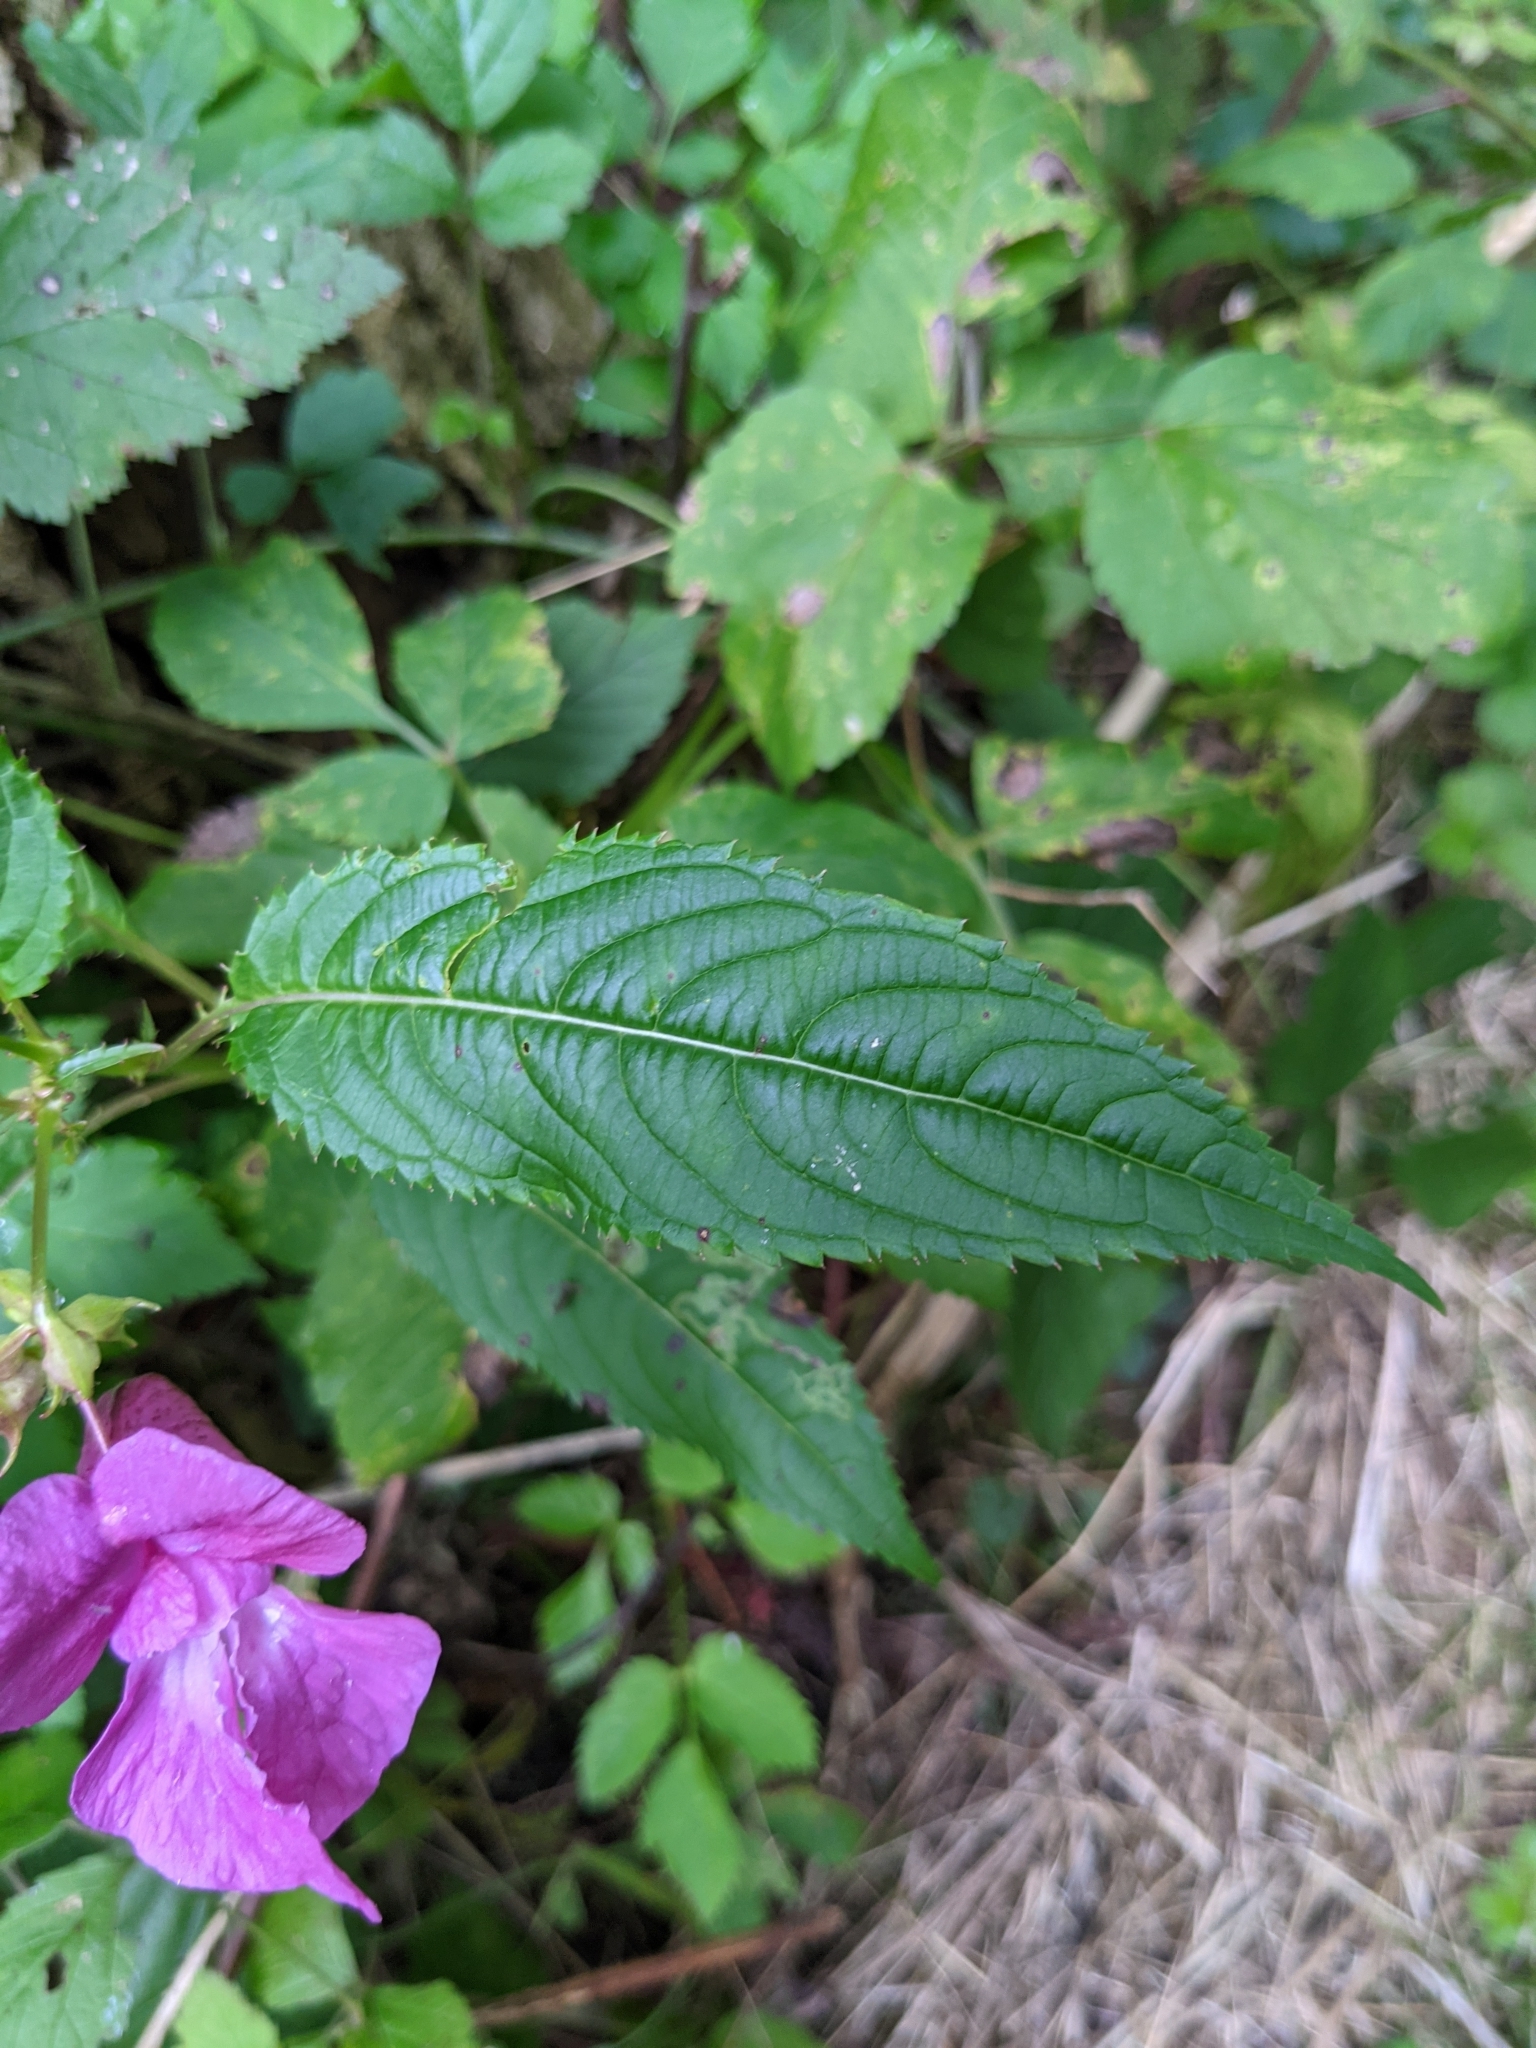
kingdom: Plantae
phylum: Tracheophyta
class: Magnoliopsida
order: Ericales
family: Balsaminaceae
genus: Impatiens
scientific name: Impatiens glandulifera
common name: Himalayan balsam
